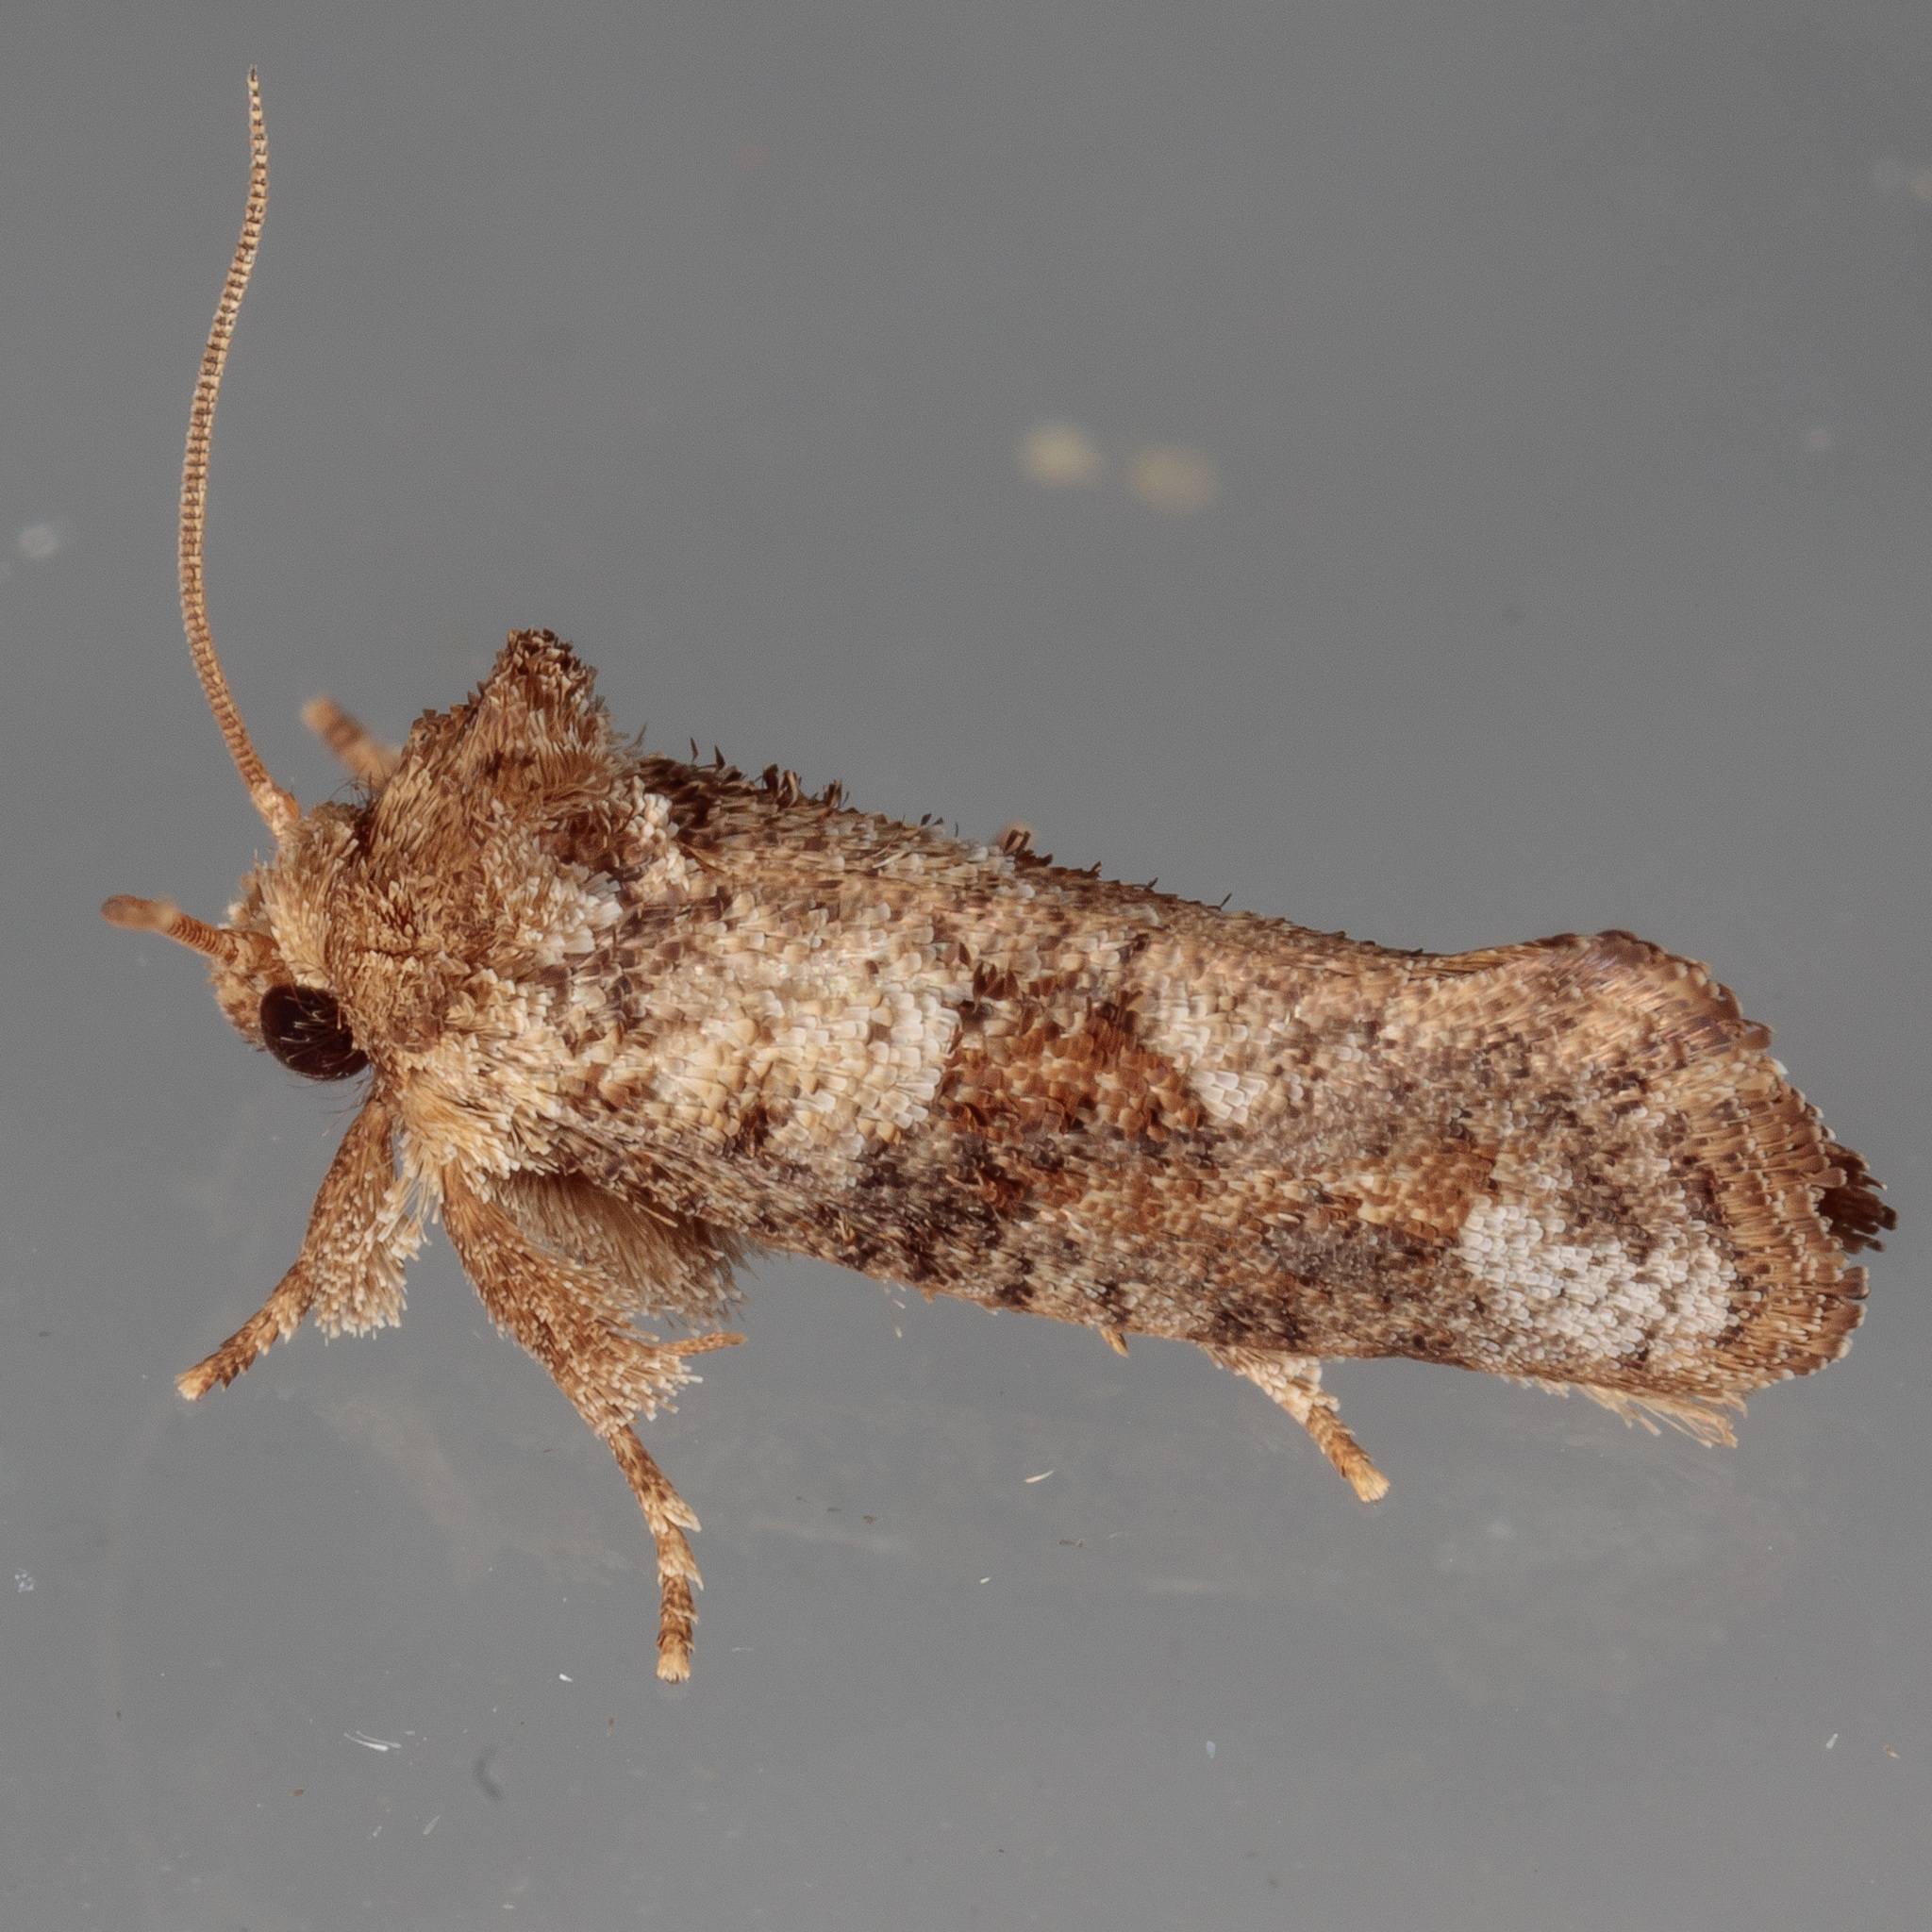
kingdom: Animalia
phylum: Arthropoda
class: Insecta
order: Lepidoptera
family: Tineidae
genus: Acrolophus
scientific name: Acrolophus piger
